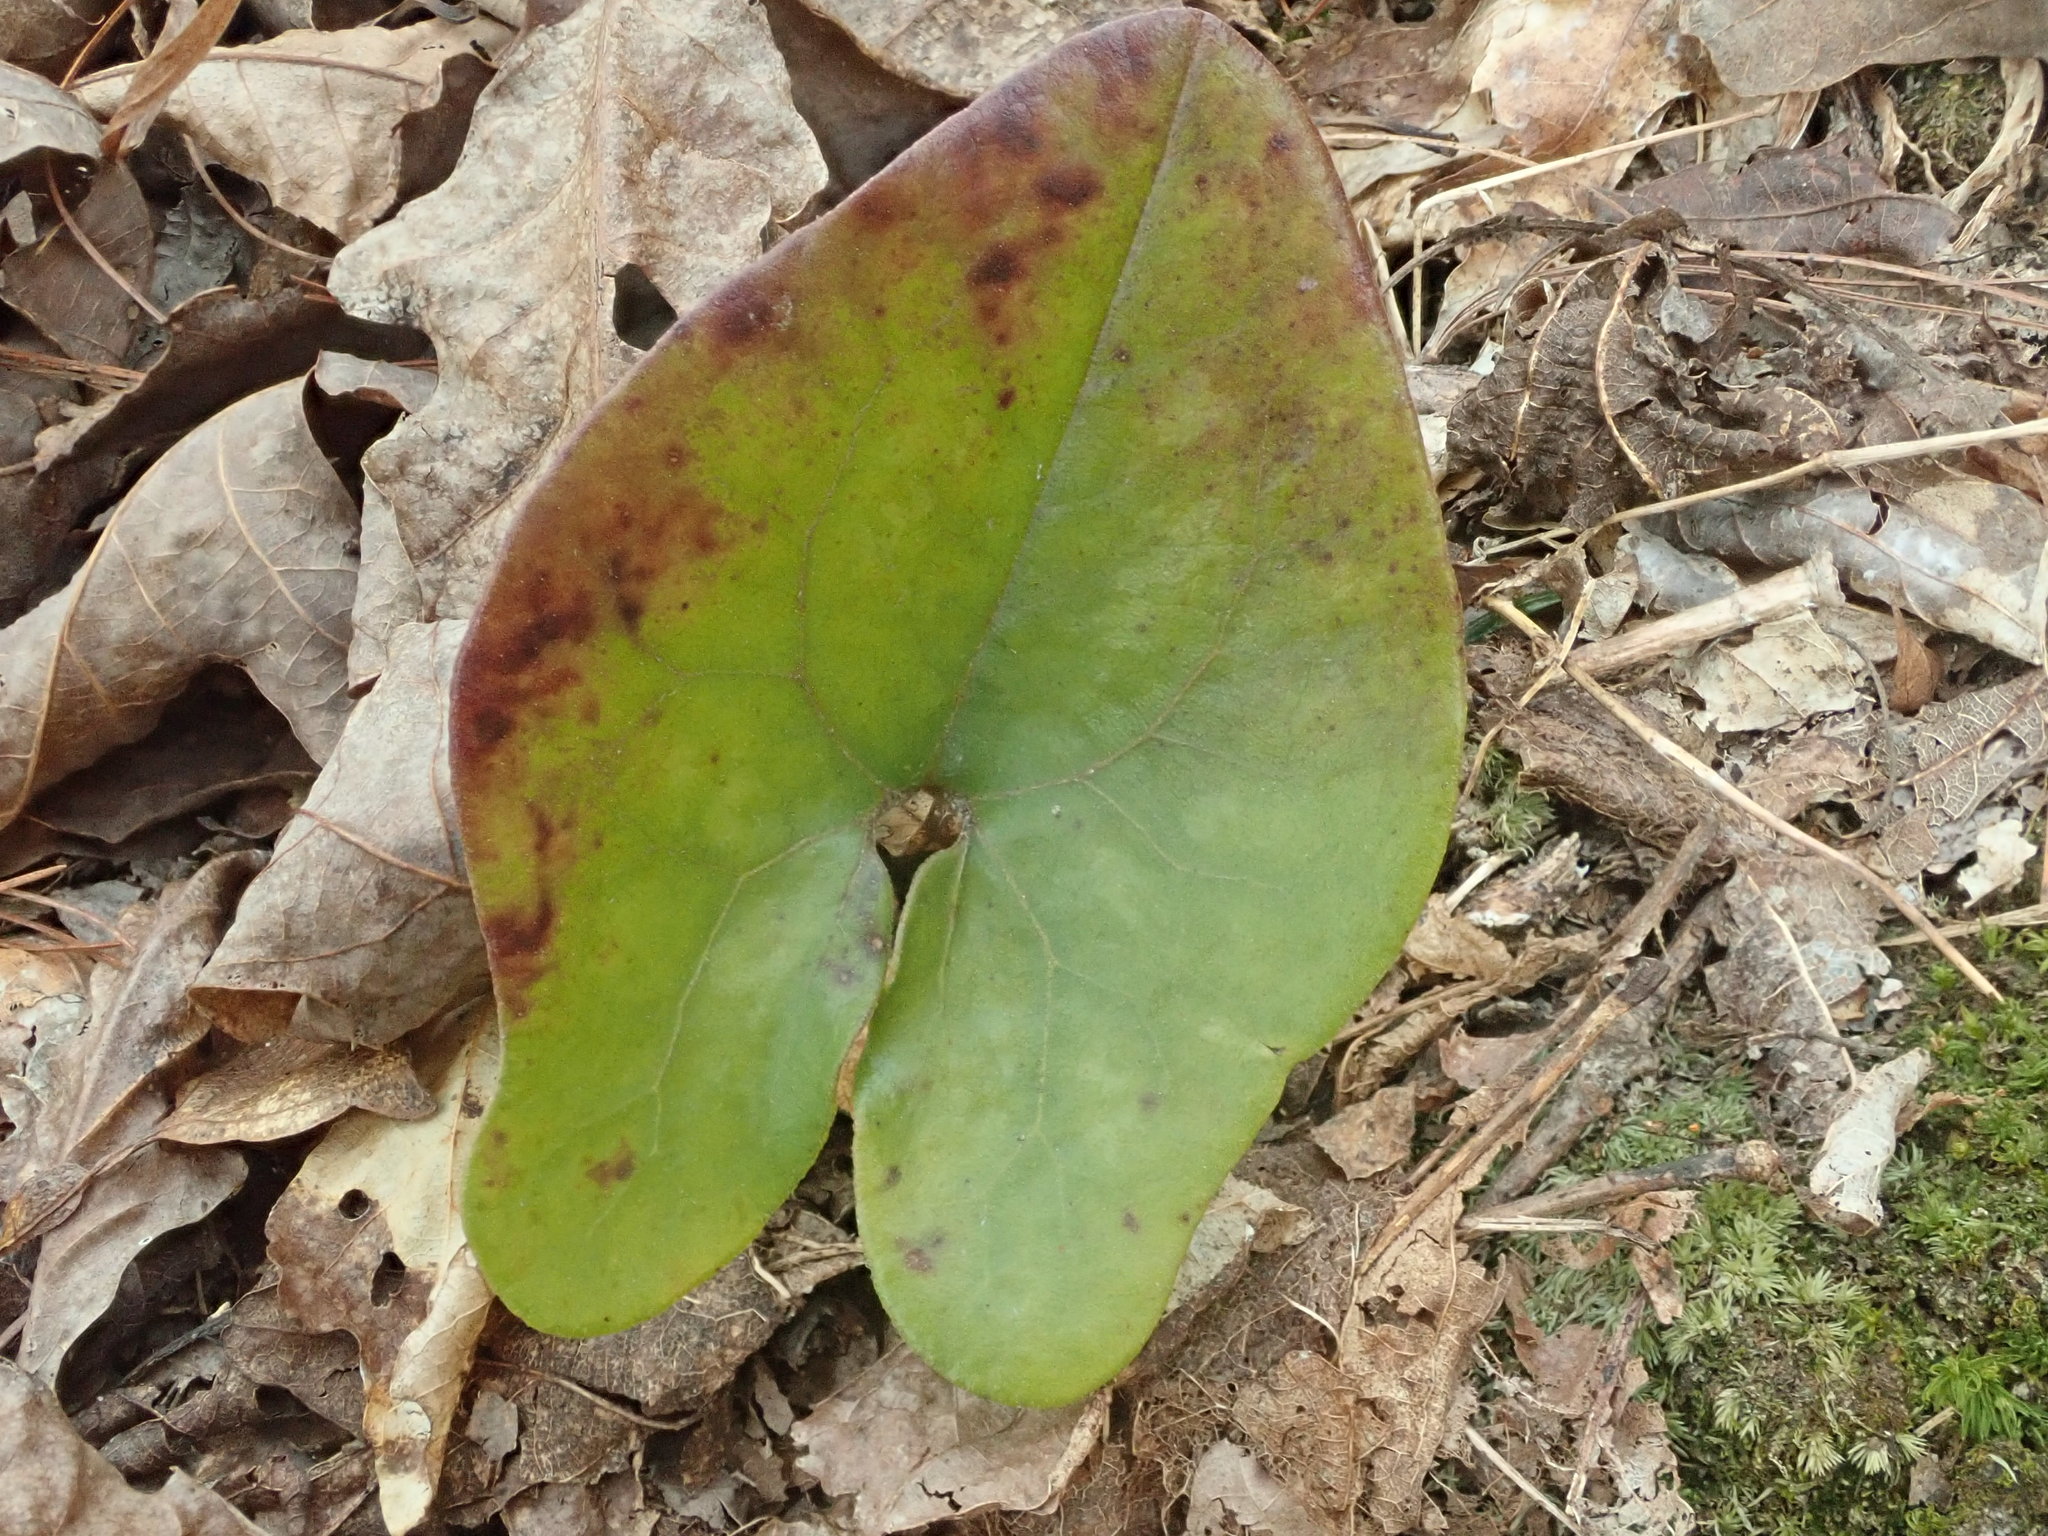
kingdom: Plantae
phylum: Tracheophyta
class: Magnoliopsida
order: Piperales
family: Aristolochiaceae
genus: Hexastylis
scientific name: Hexastylis arifolia
